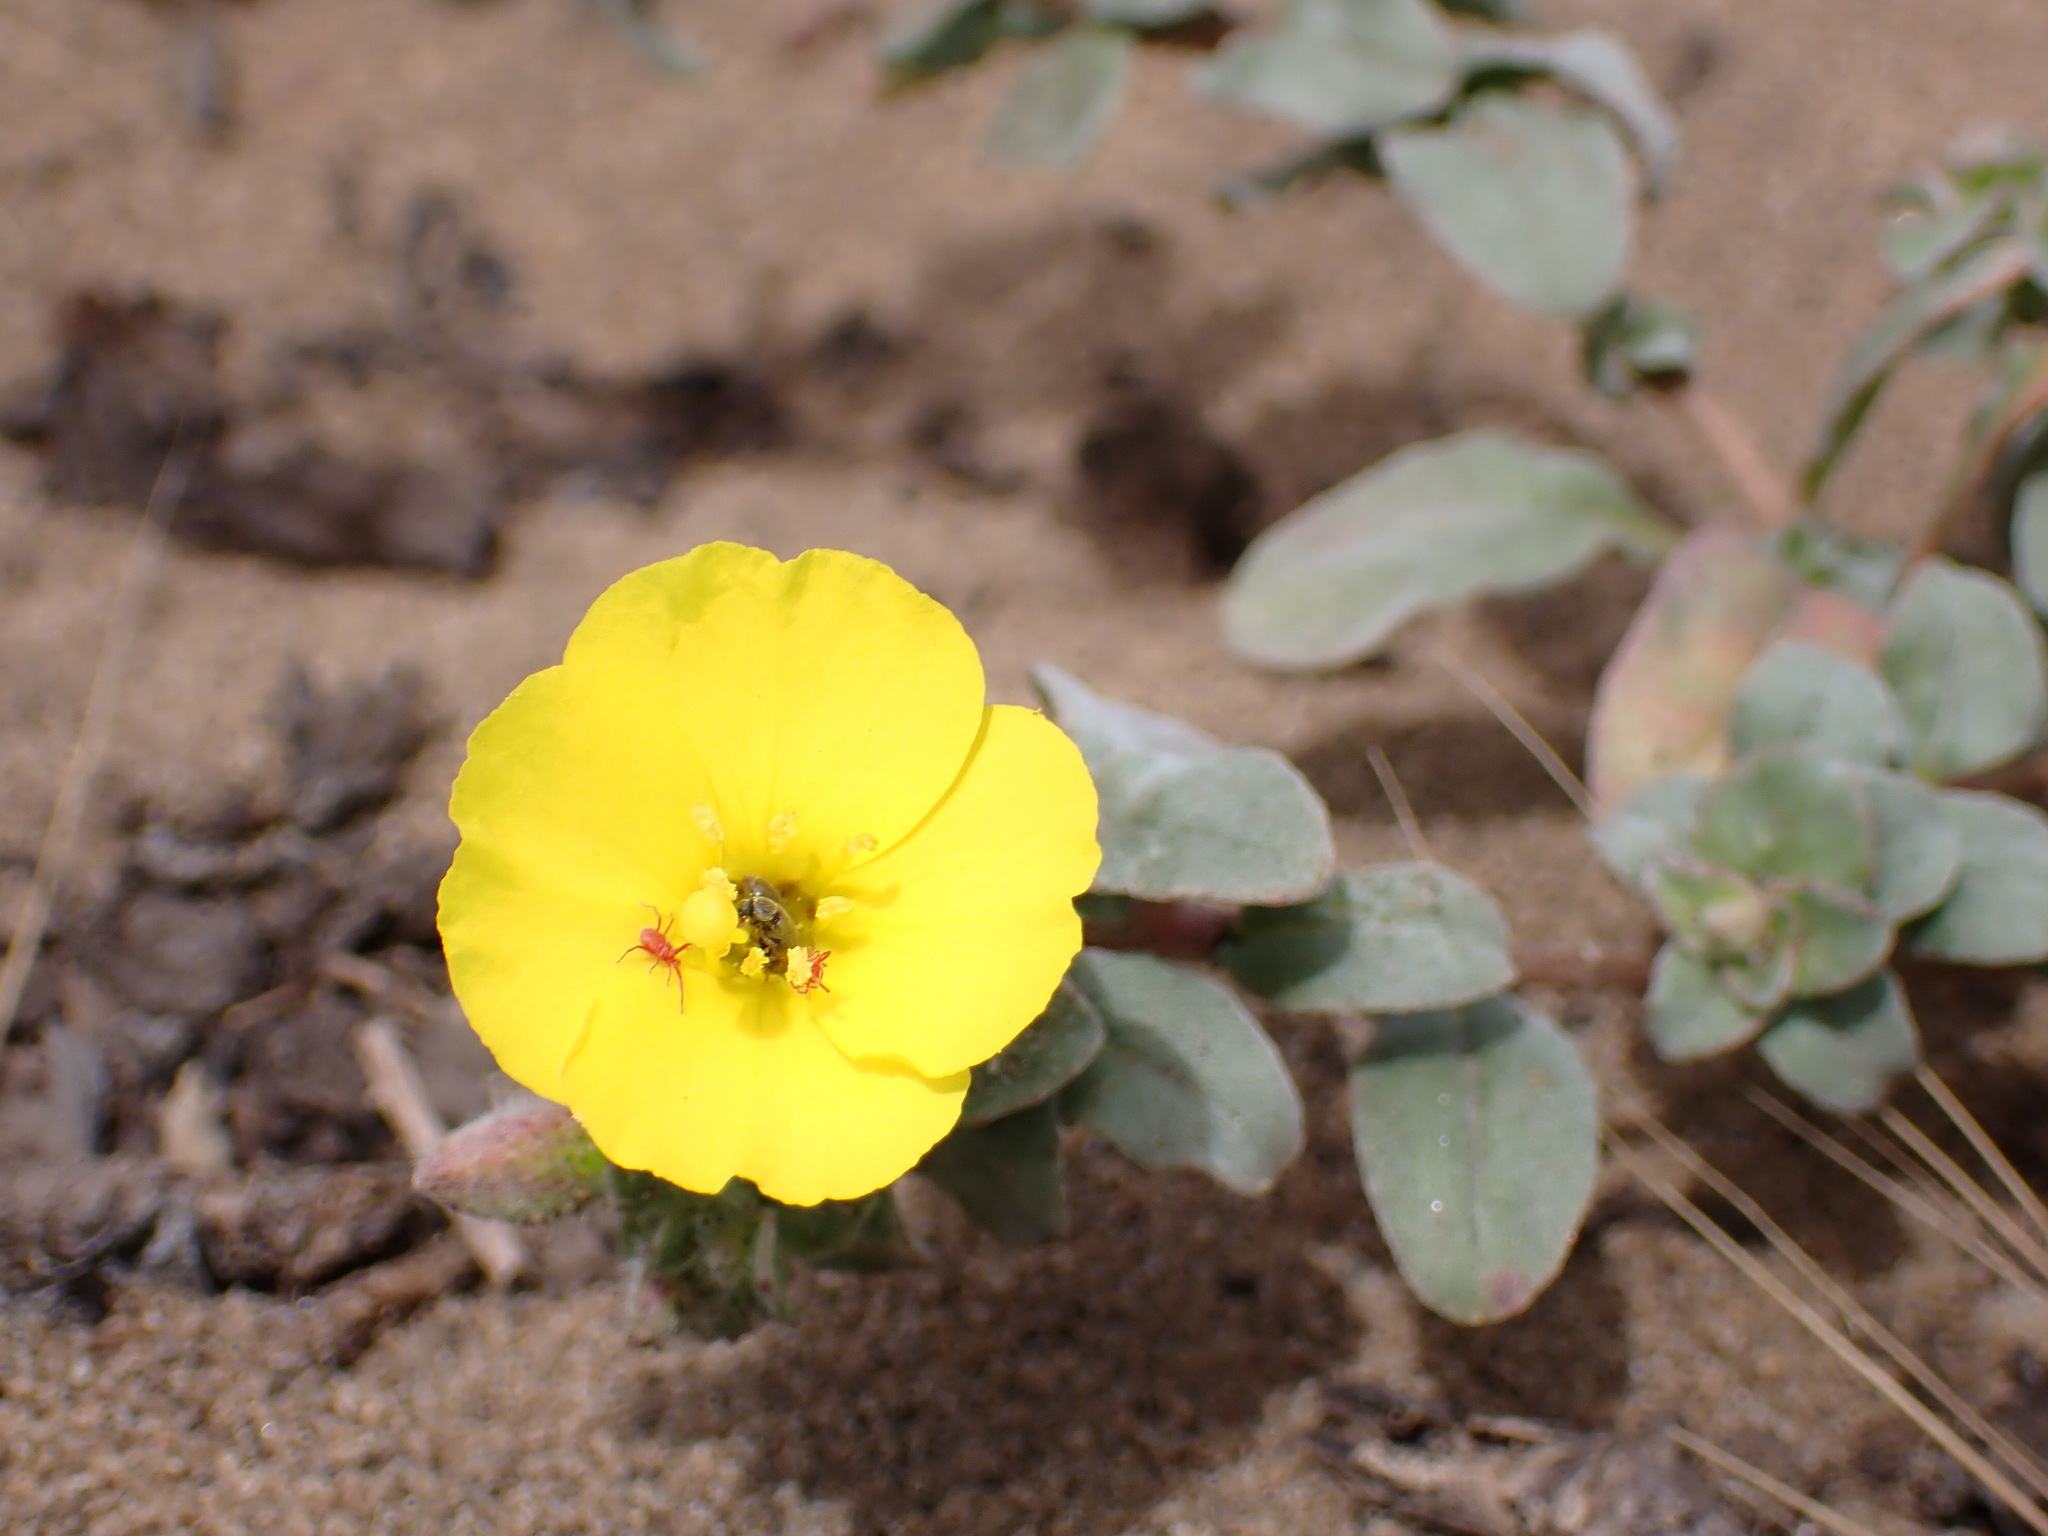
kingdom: Plantae
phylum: Tracheophyta
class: Magnoliopsida
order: Myrtales
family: Onagraceae
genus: Camissoniopsis
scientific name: Camissoniopsis cheiranthifolia
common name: Beach suncup
